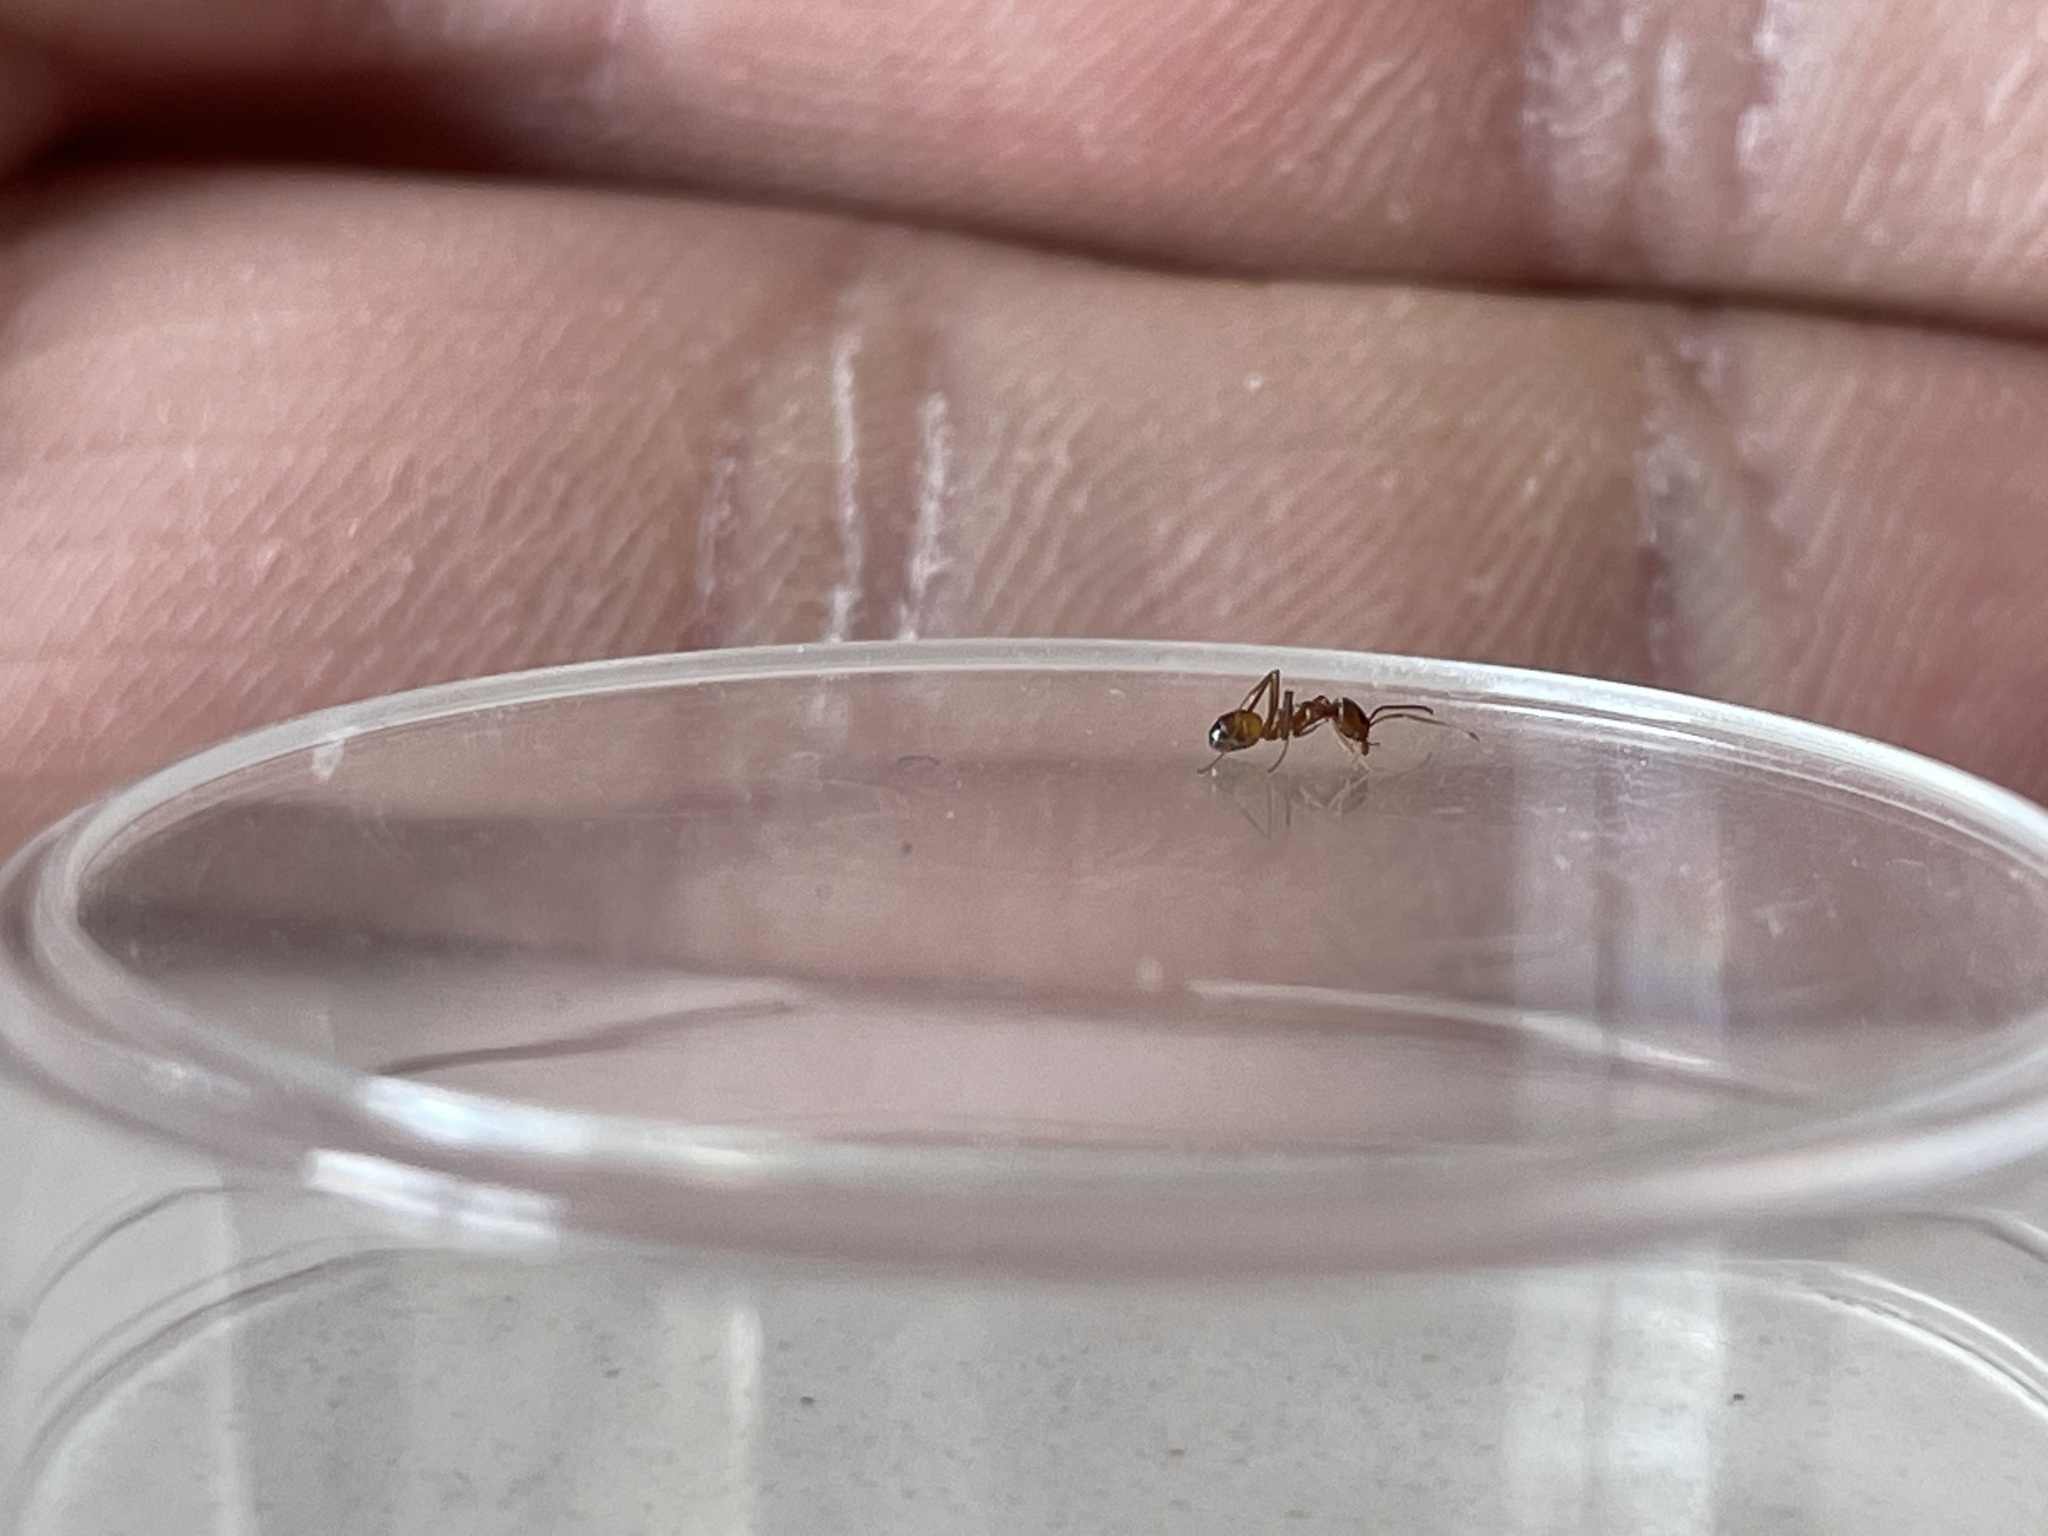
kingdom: Animalia
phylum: Arthropoda
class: Insecta
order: Hymenoptera
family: Formicidae
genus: Dorymyrmex
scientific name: Dorymyrmex flavus
